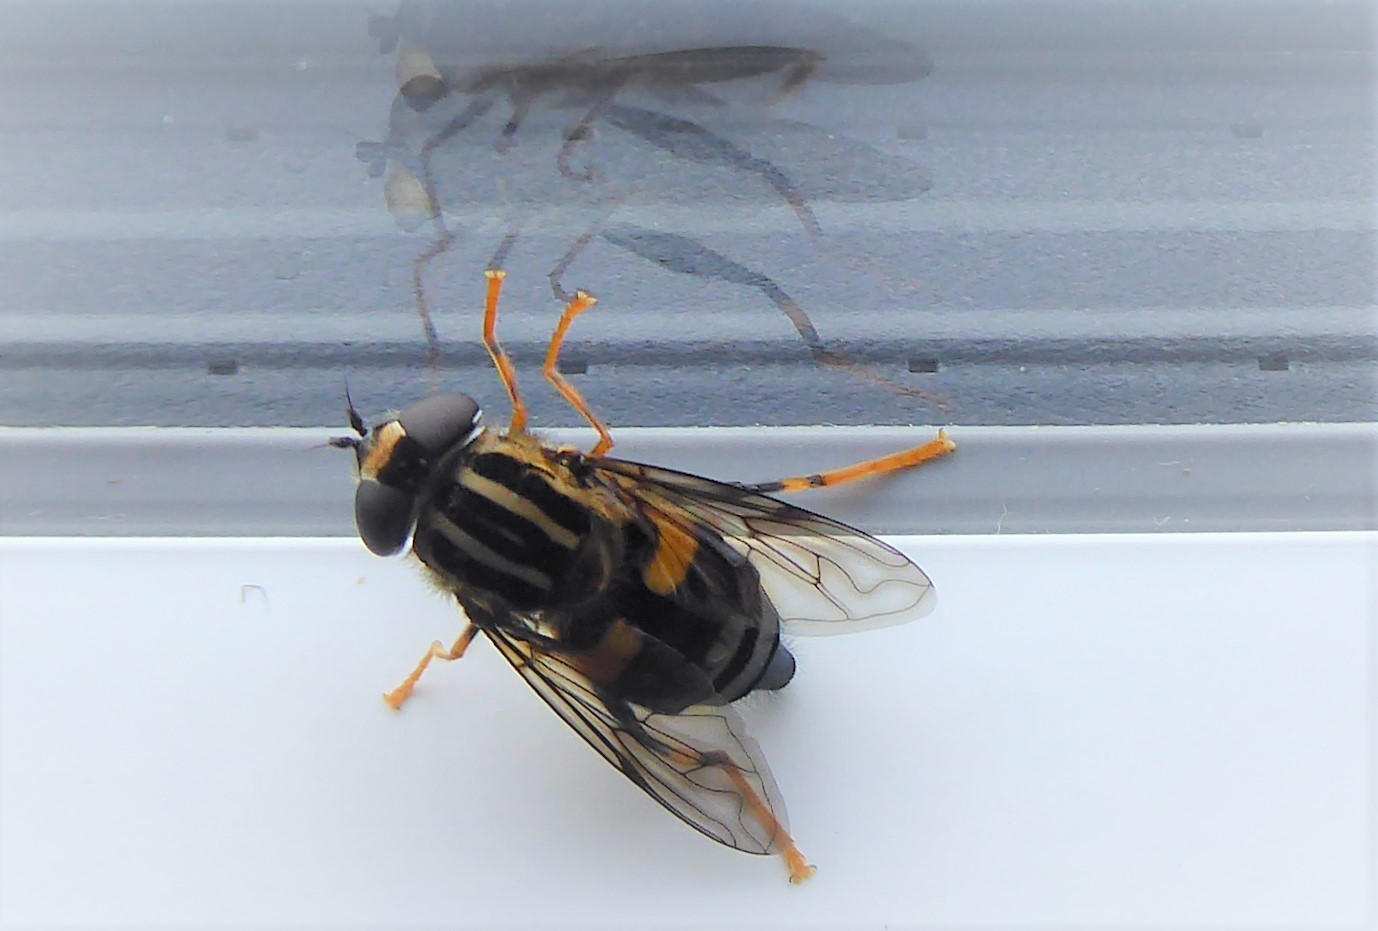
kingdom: Animalia
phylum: Arthropoda
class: Insecta
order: Diptera
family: Syrphidae
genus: Helophilus
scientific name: Helophilus antipodus
